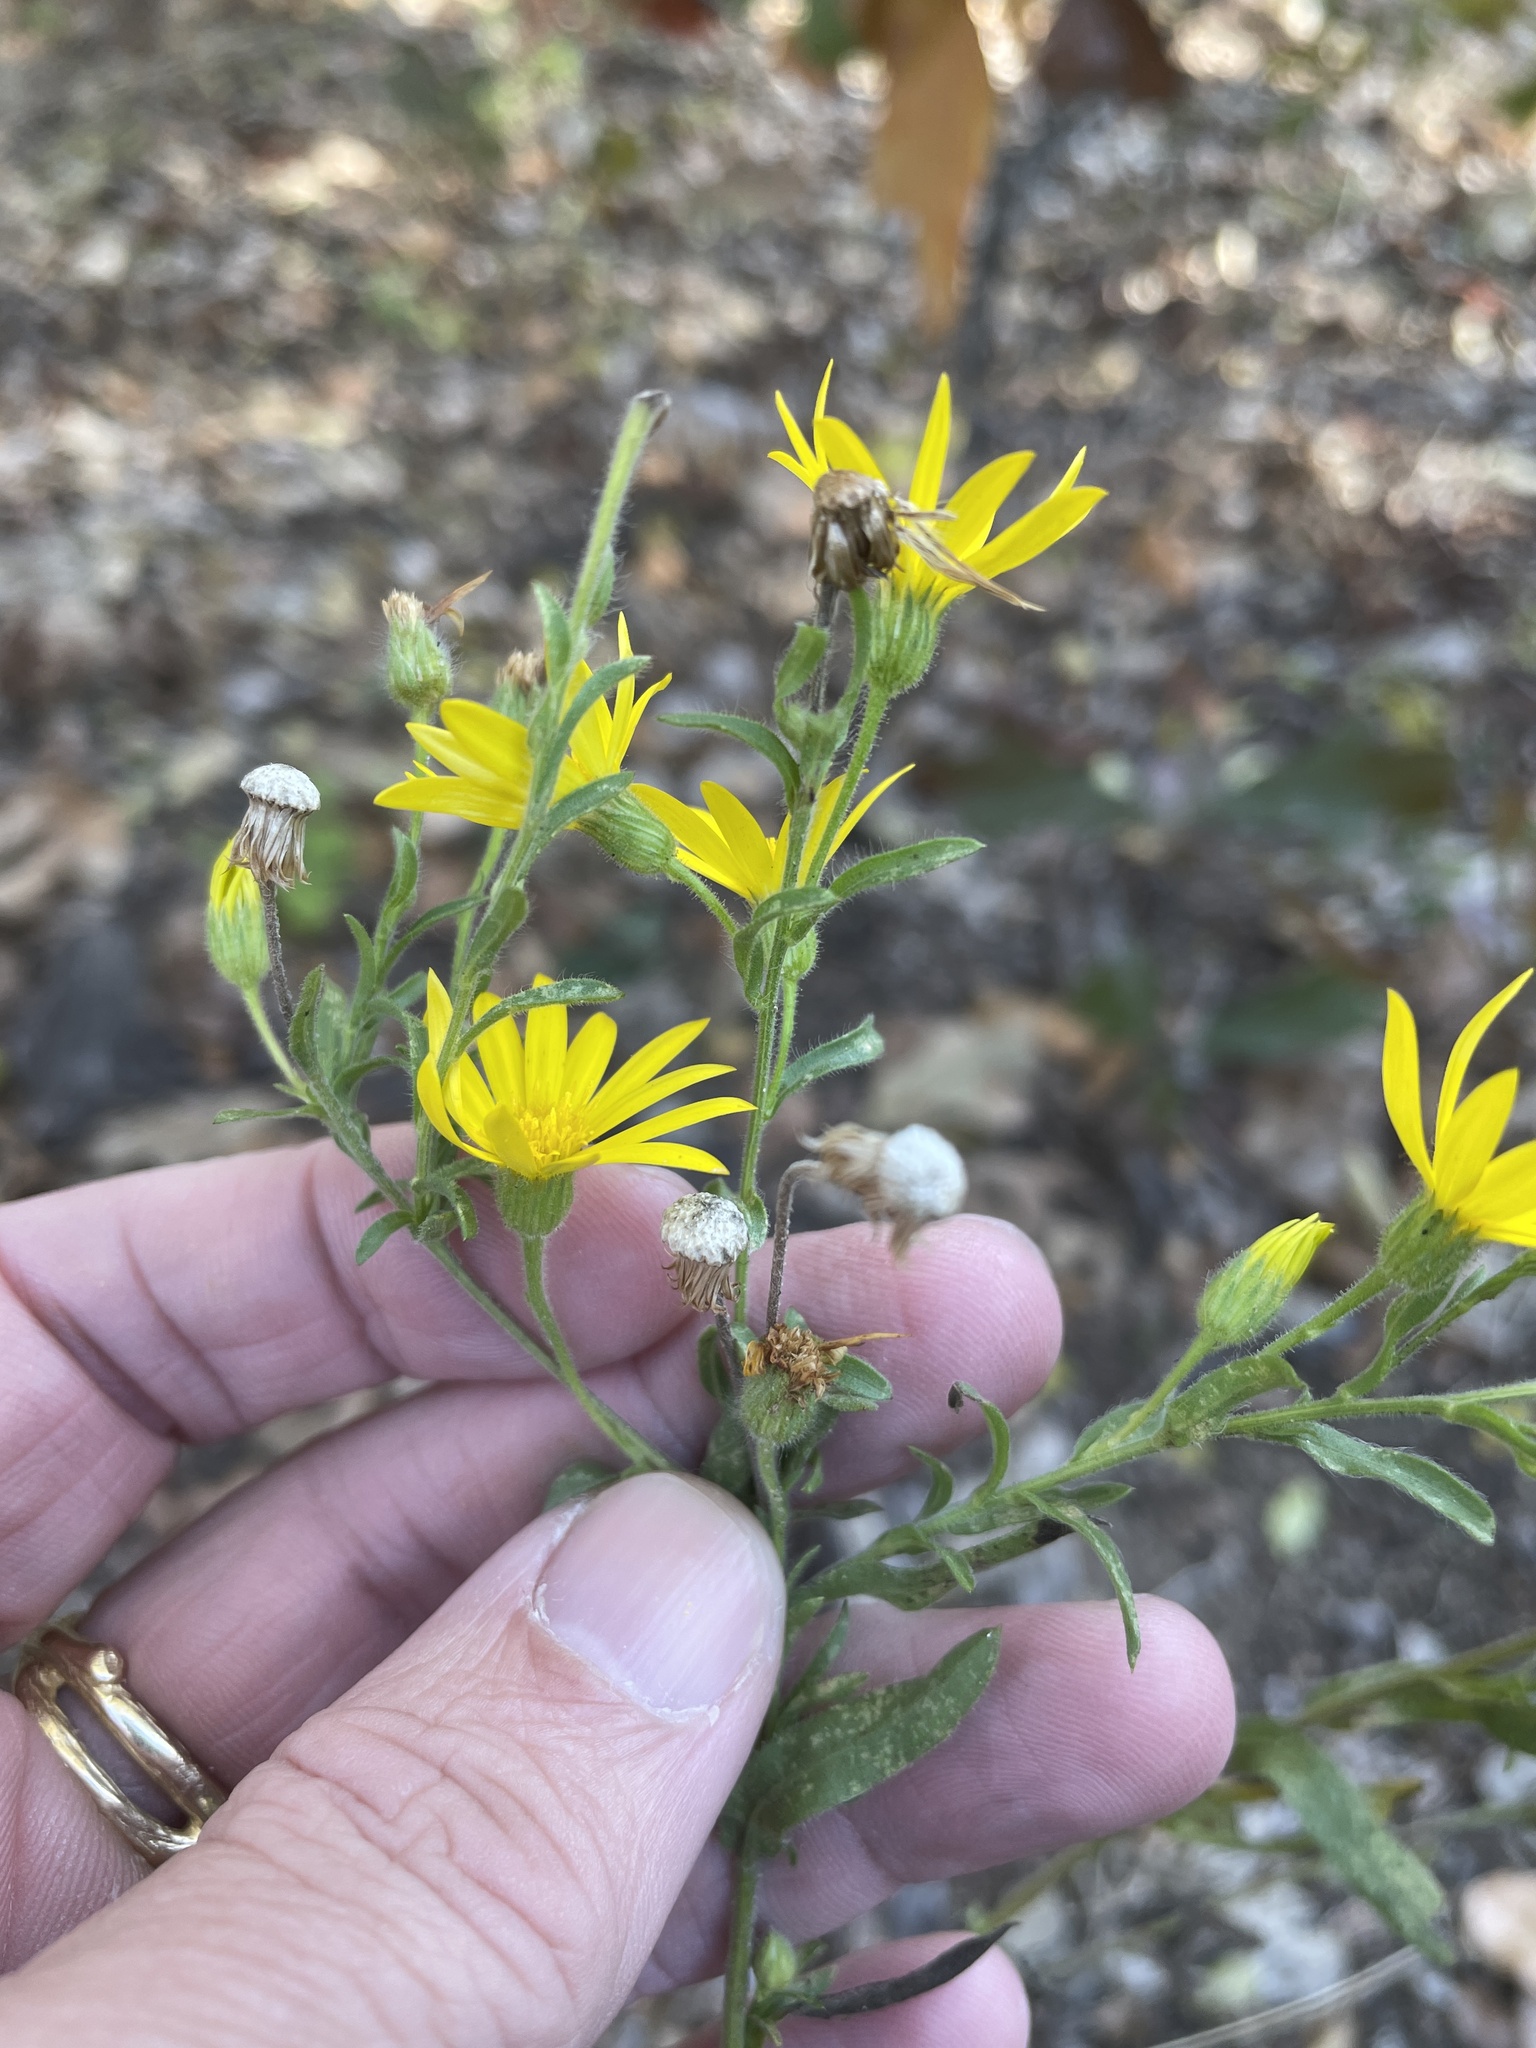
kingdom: Plantae
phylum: Tracheophyta
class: Magnoliopsida
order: Asterales
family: Asteraceae
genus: Bradburia
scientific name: Bradburia pilosa
